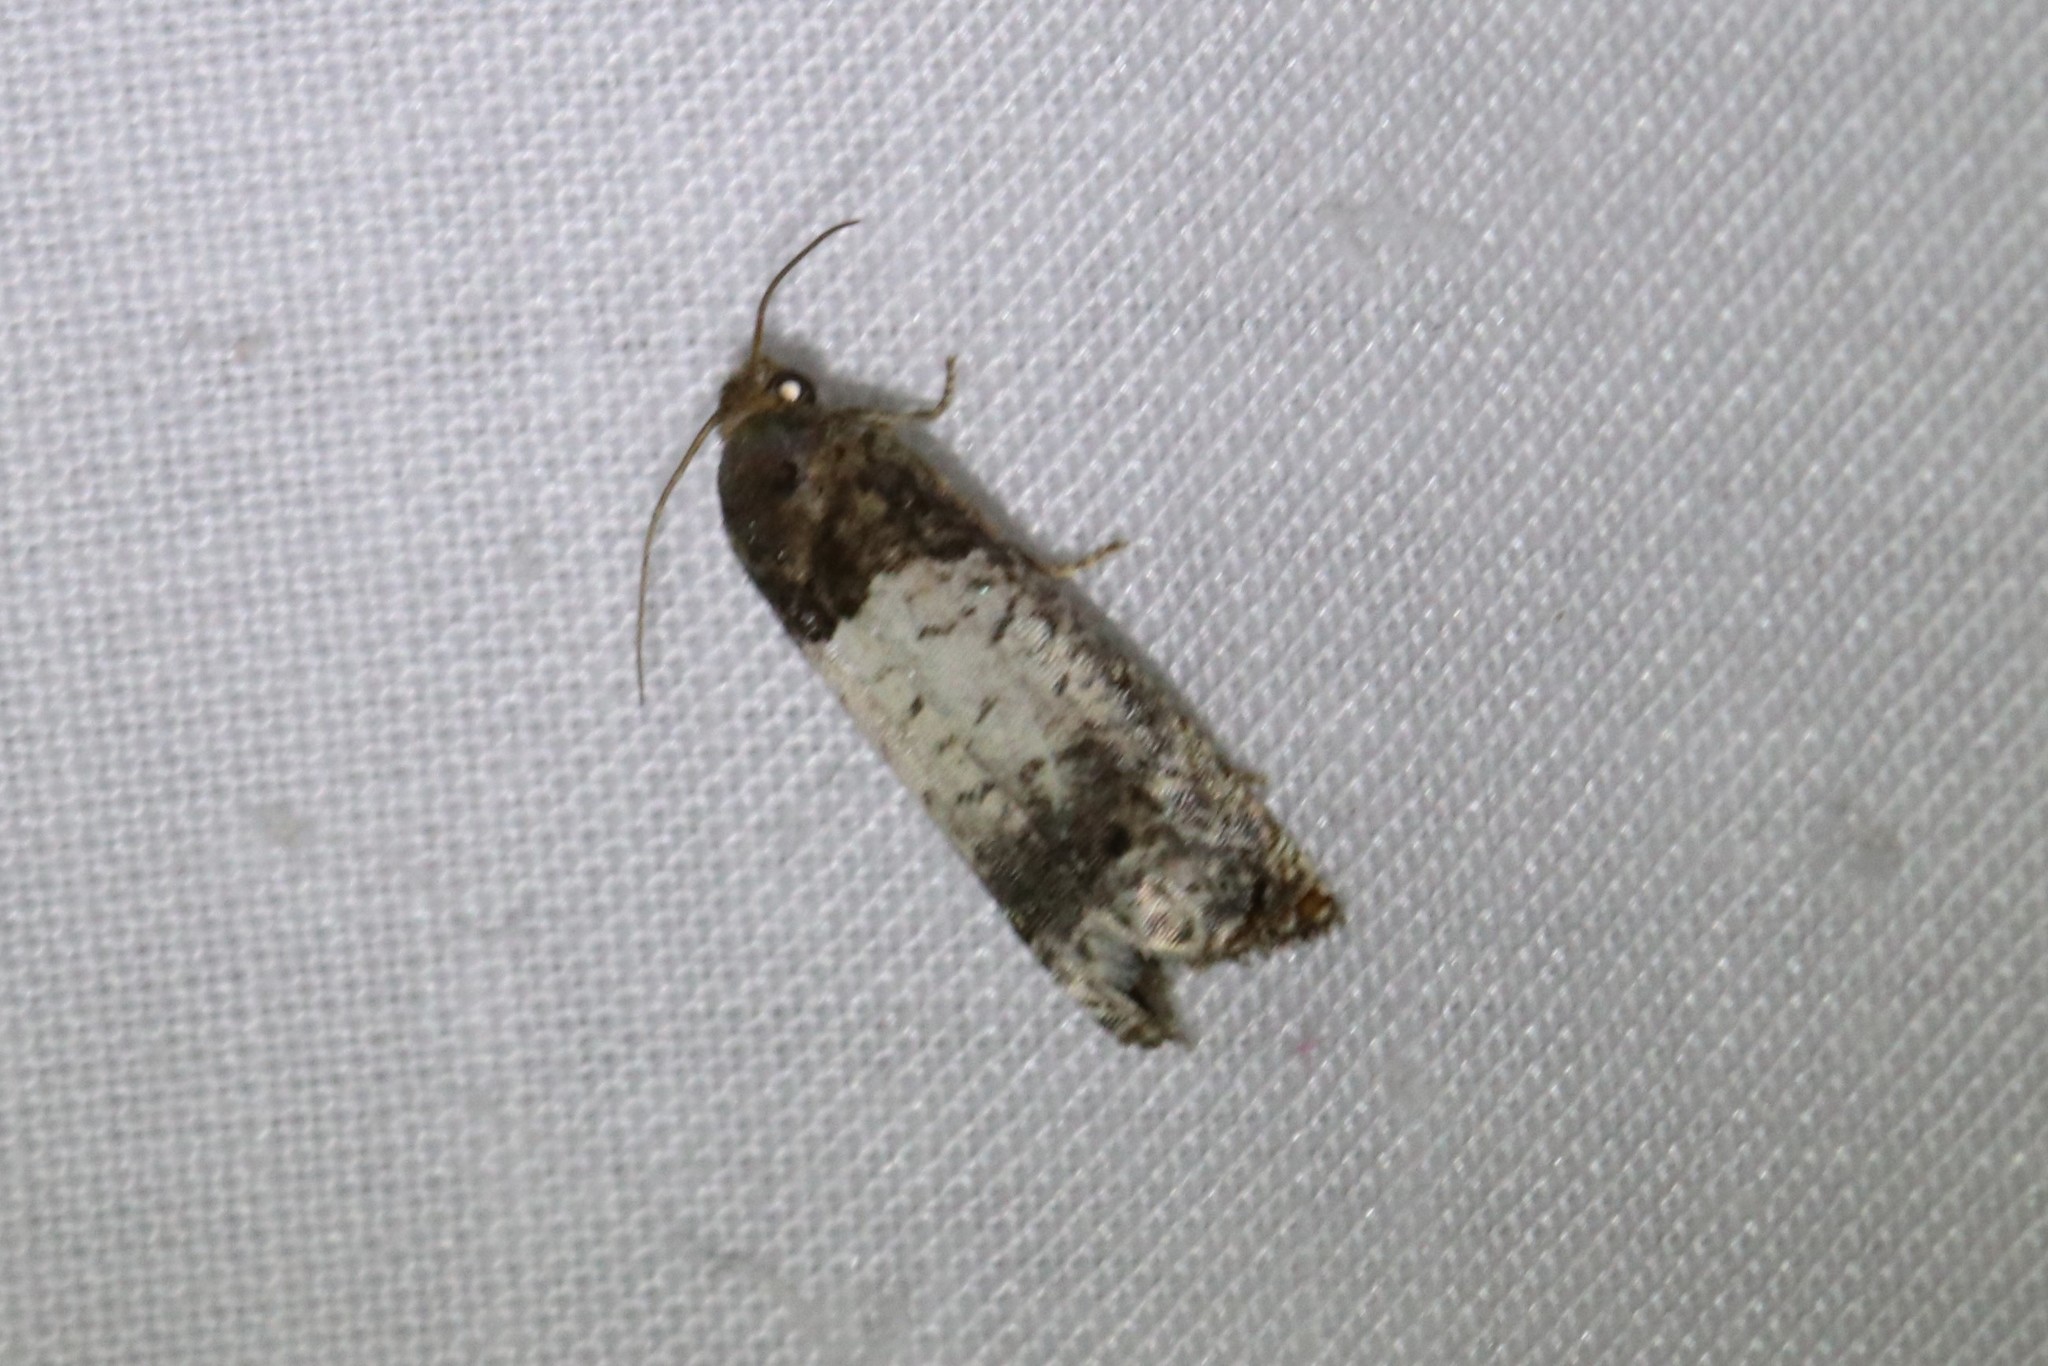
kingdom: Animalia
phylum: Arthropoda
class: Insecta
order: Lepidoptera
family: Tortricidae
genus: Epiblema
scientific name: Epiblema scudderiana
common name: Goldenrod gall moth
